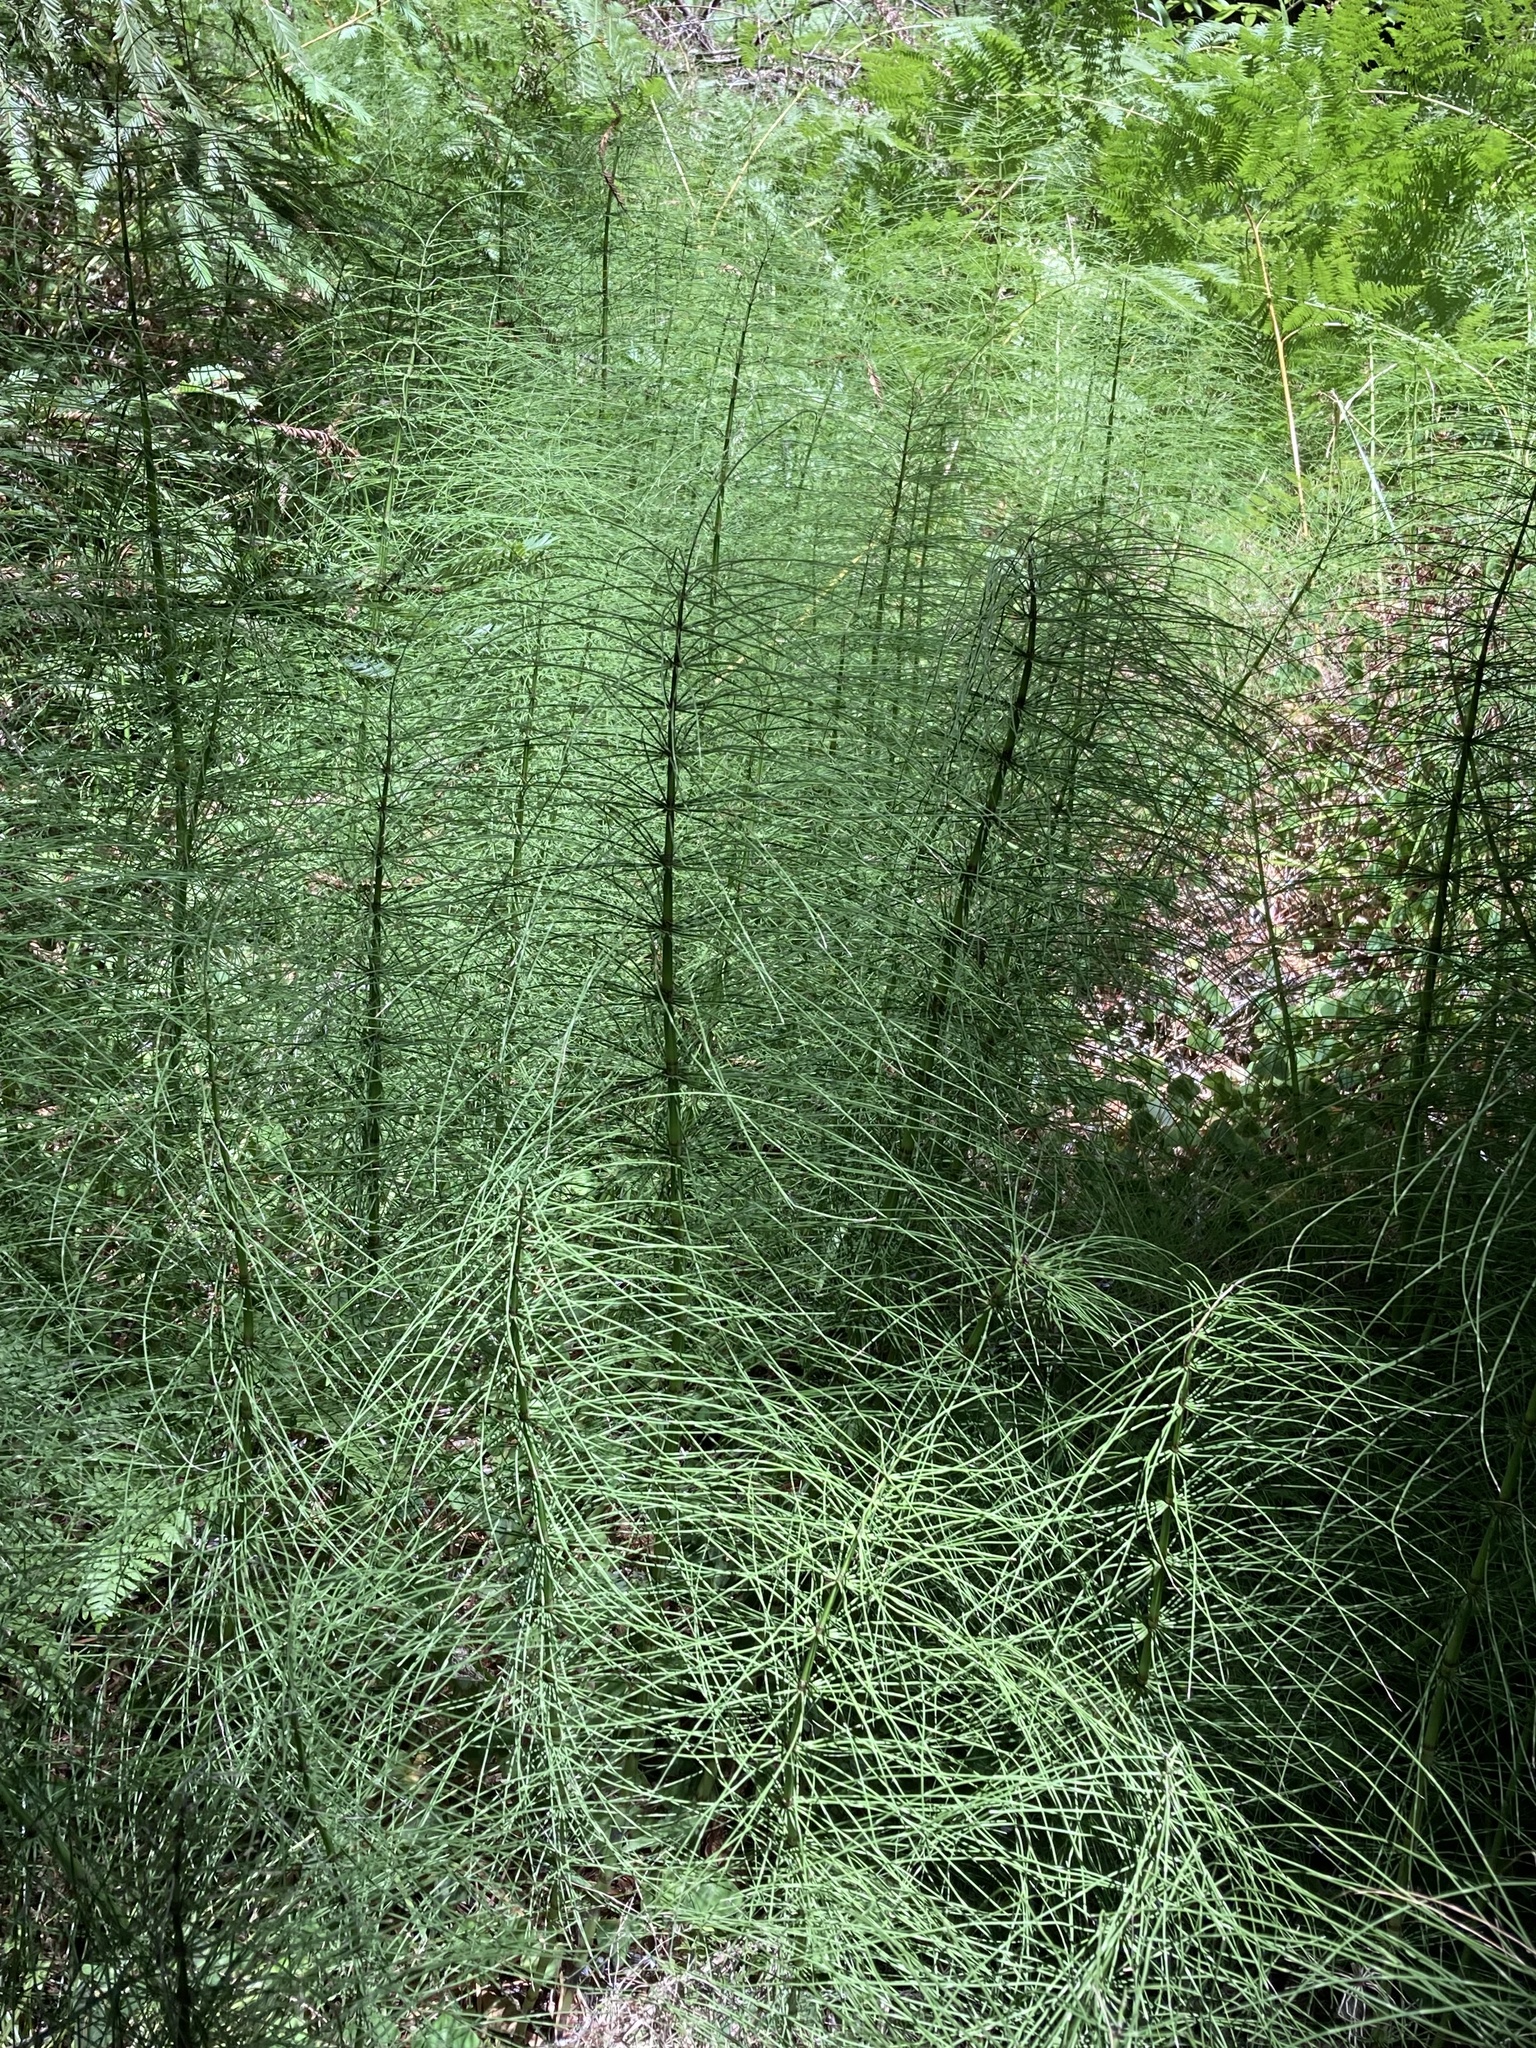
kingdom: Plantae
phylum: Tracheophyta
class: Polypodiopsida
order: Equisetales
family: Equisetaceae
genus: Equisetum
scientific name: Equisetum braunii
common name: Braun's horsetail
